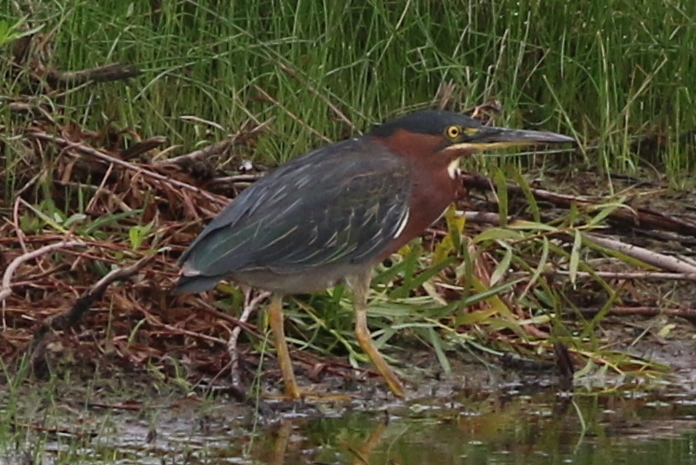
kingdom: Animalia
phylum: Chordata
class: Aves
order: Pelecaniformes
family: Ardeidae
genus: Butorides
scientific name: Butorides virescens
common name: Green heron
